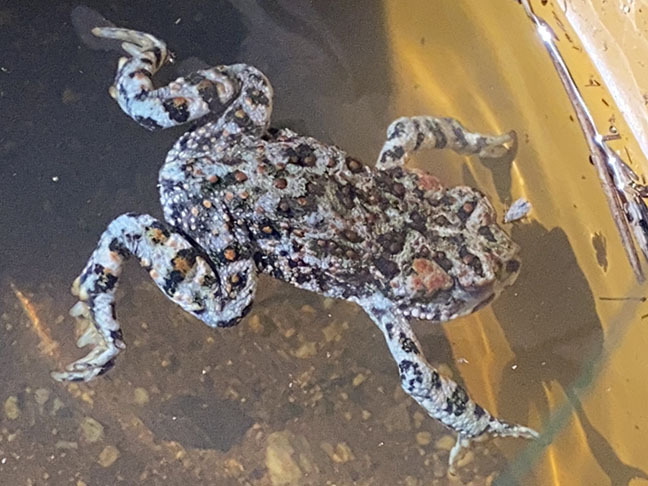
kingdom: Animalia
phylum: Chordata
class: Amphibia
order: Anura
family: Bufonidae
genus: Anaxyrus
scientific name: Anaxyrus boreas
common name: Western toad
